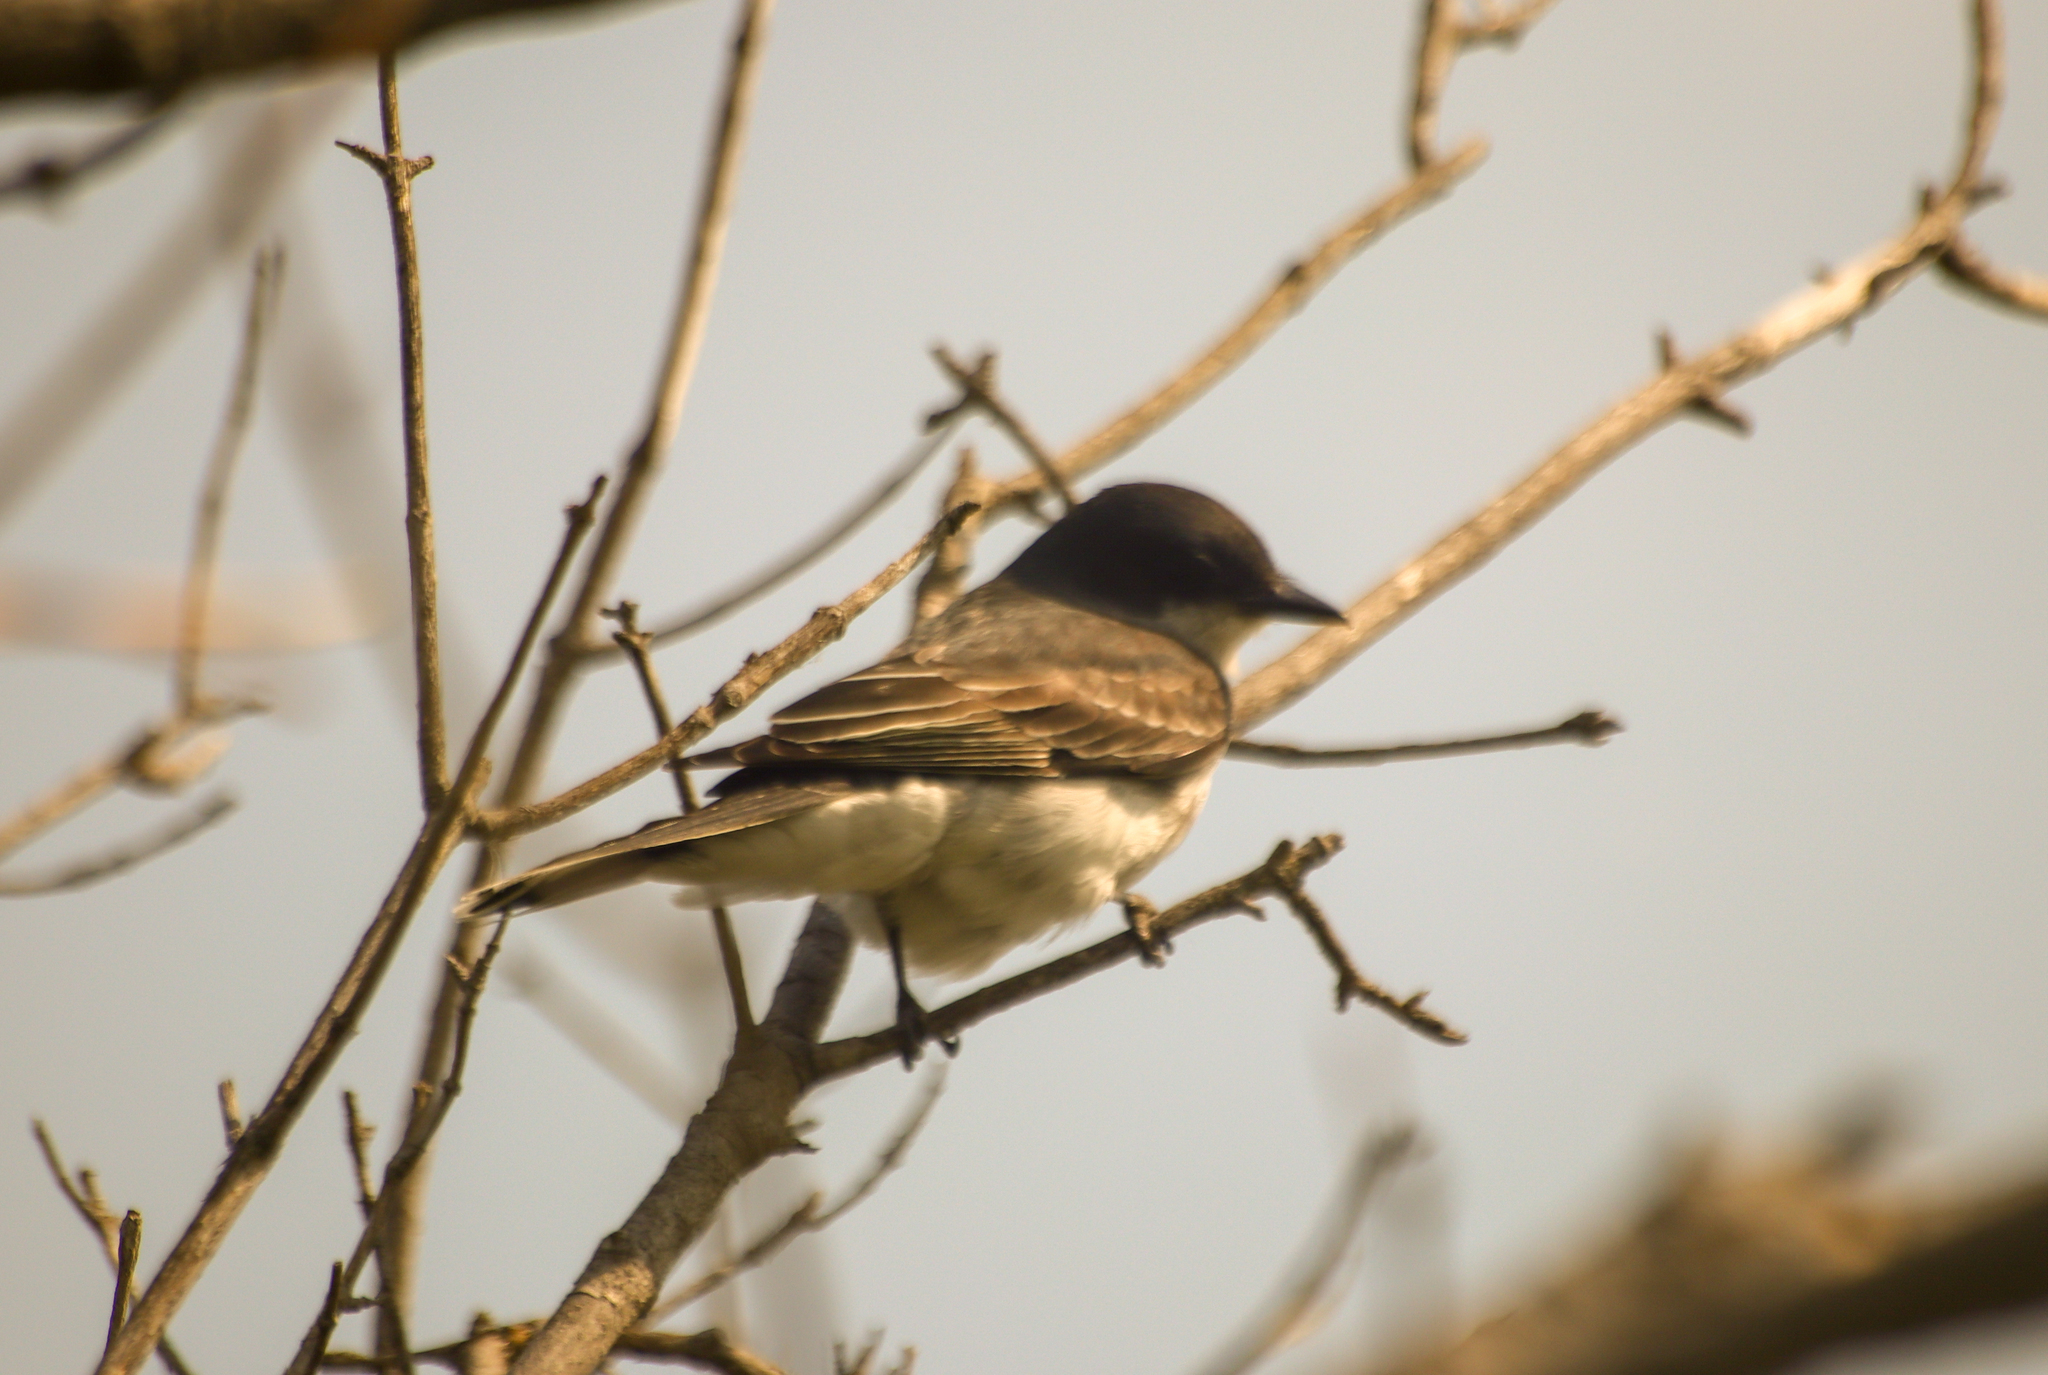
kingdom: Animalia
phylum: Chordata
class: Aves
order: Passeriformes
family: Tyrannidae
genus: Tyrannus
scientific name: Tyrannus tyrannus
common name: Eastern kingbird
